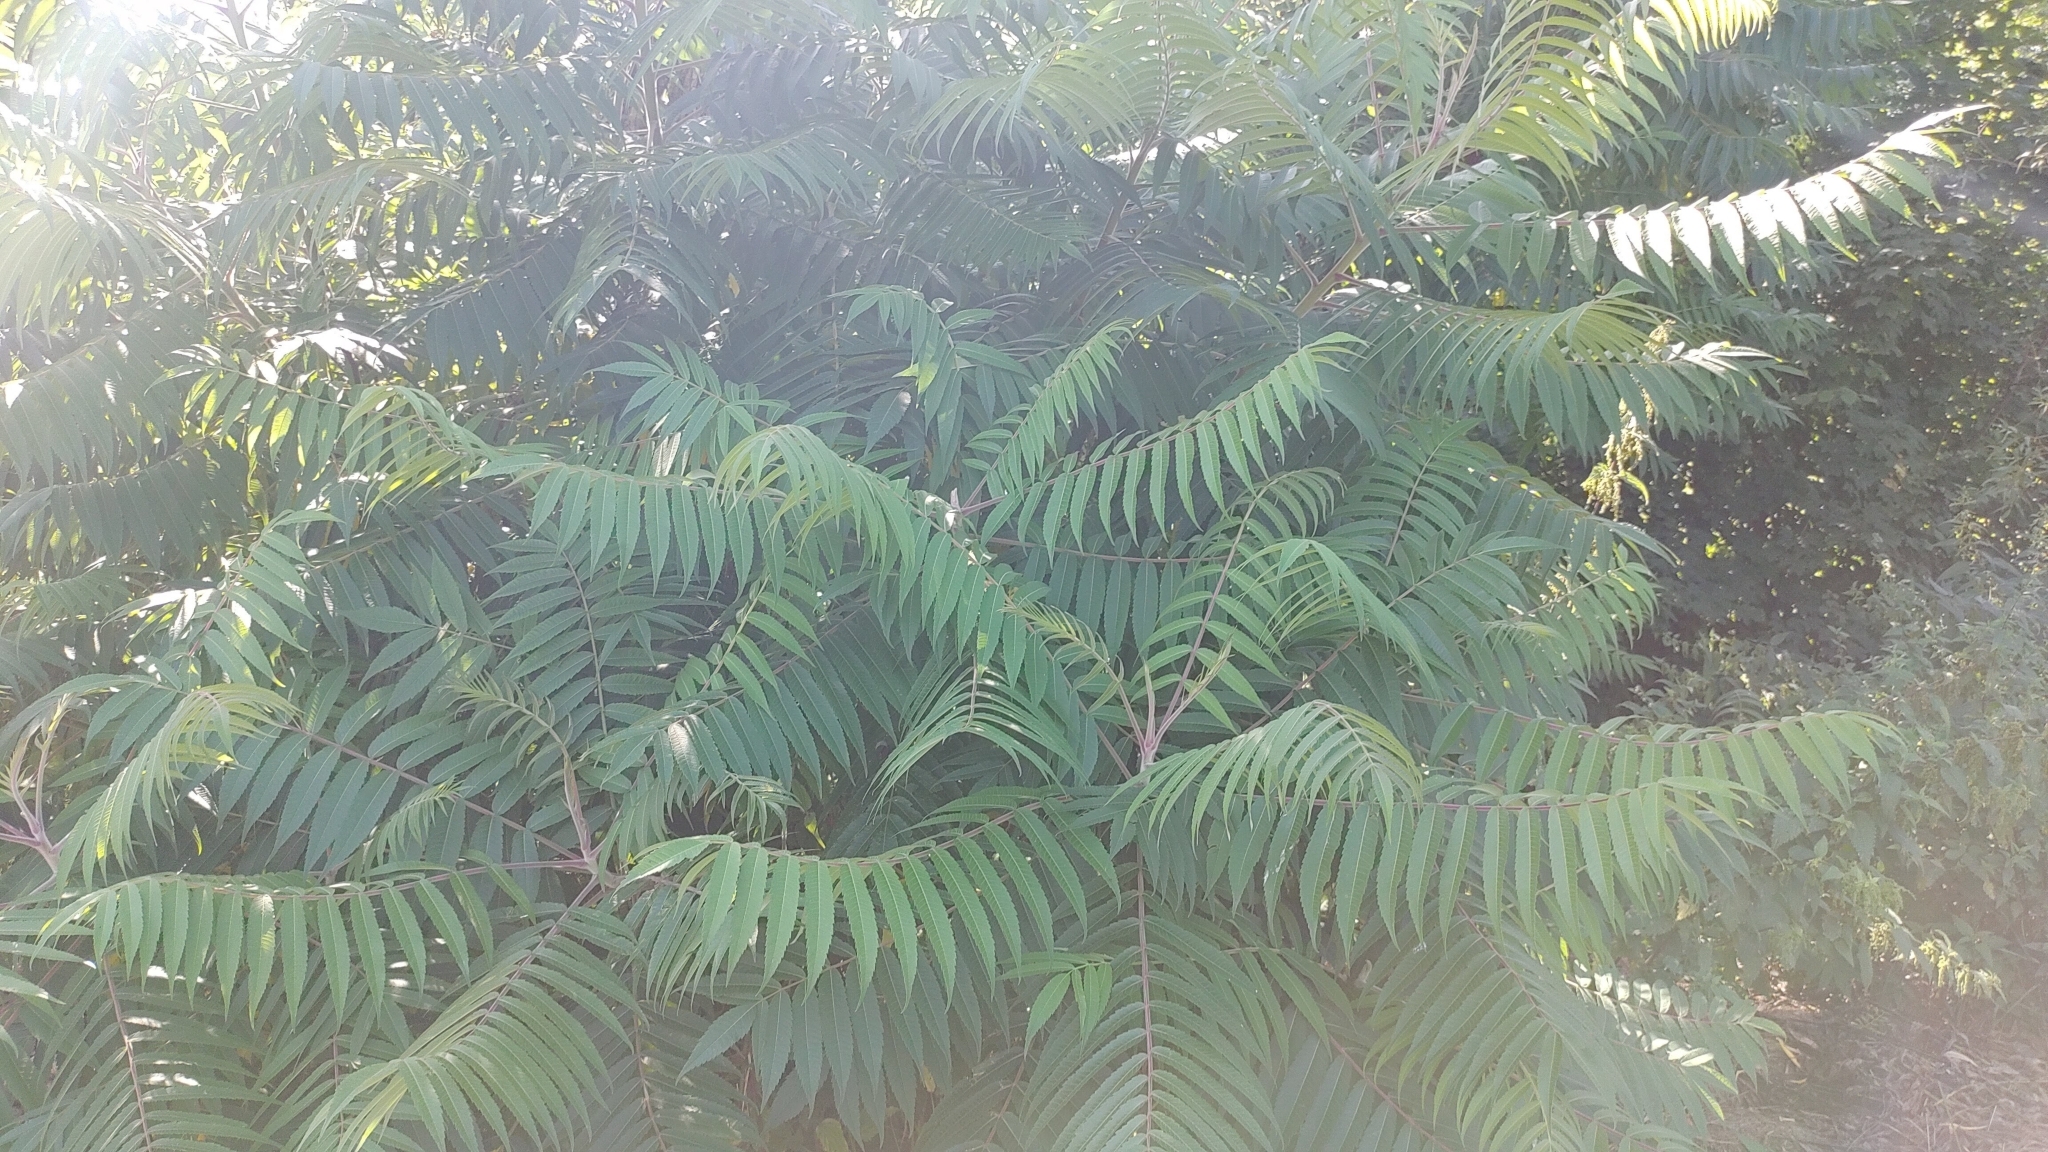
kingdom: Plantae
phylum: Tracheophyta
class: Magnoliopsida
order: Sapindales
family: Anacardiaceae
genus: Rhus
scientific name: Rhus typhina
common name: Staghorn sumac
